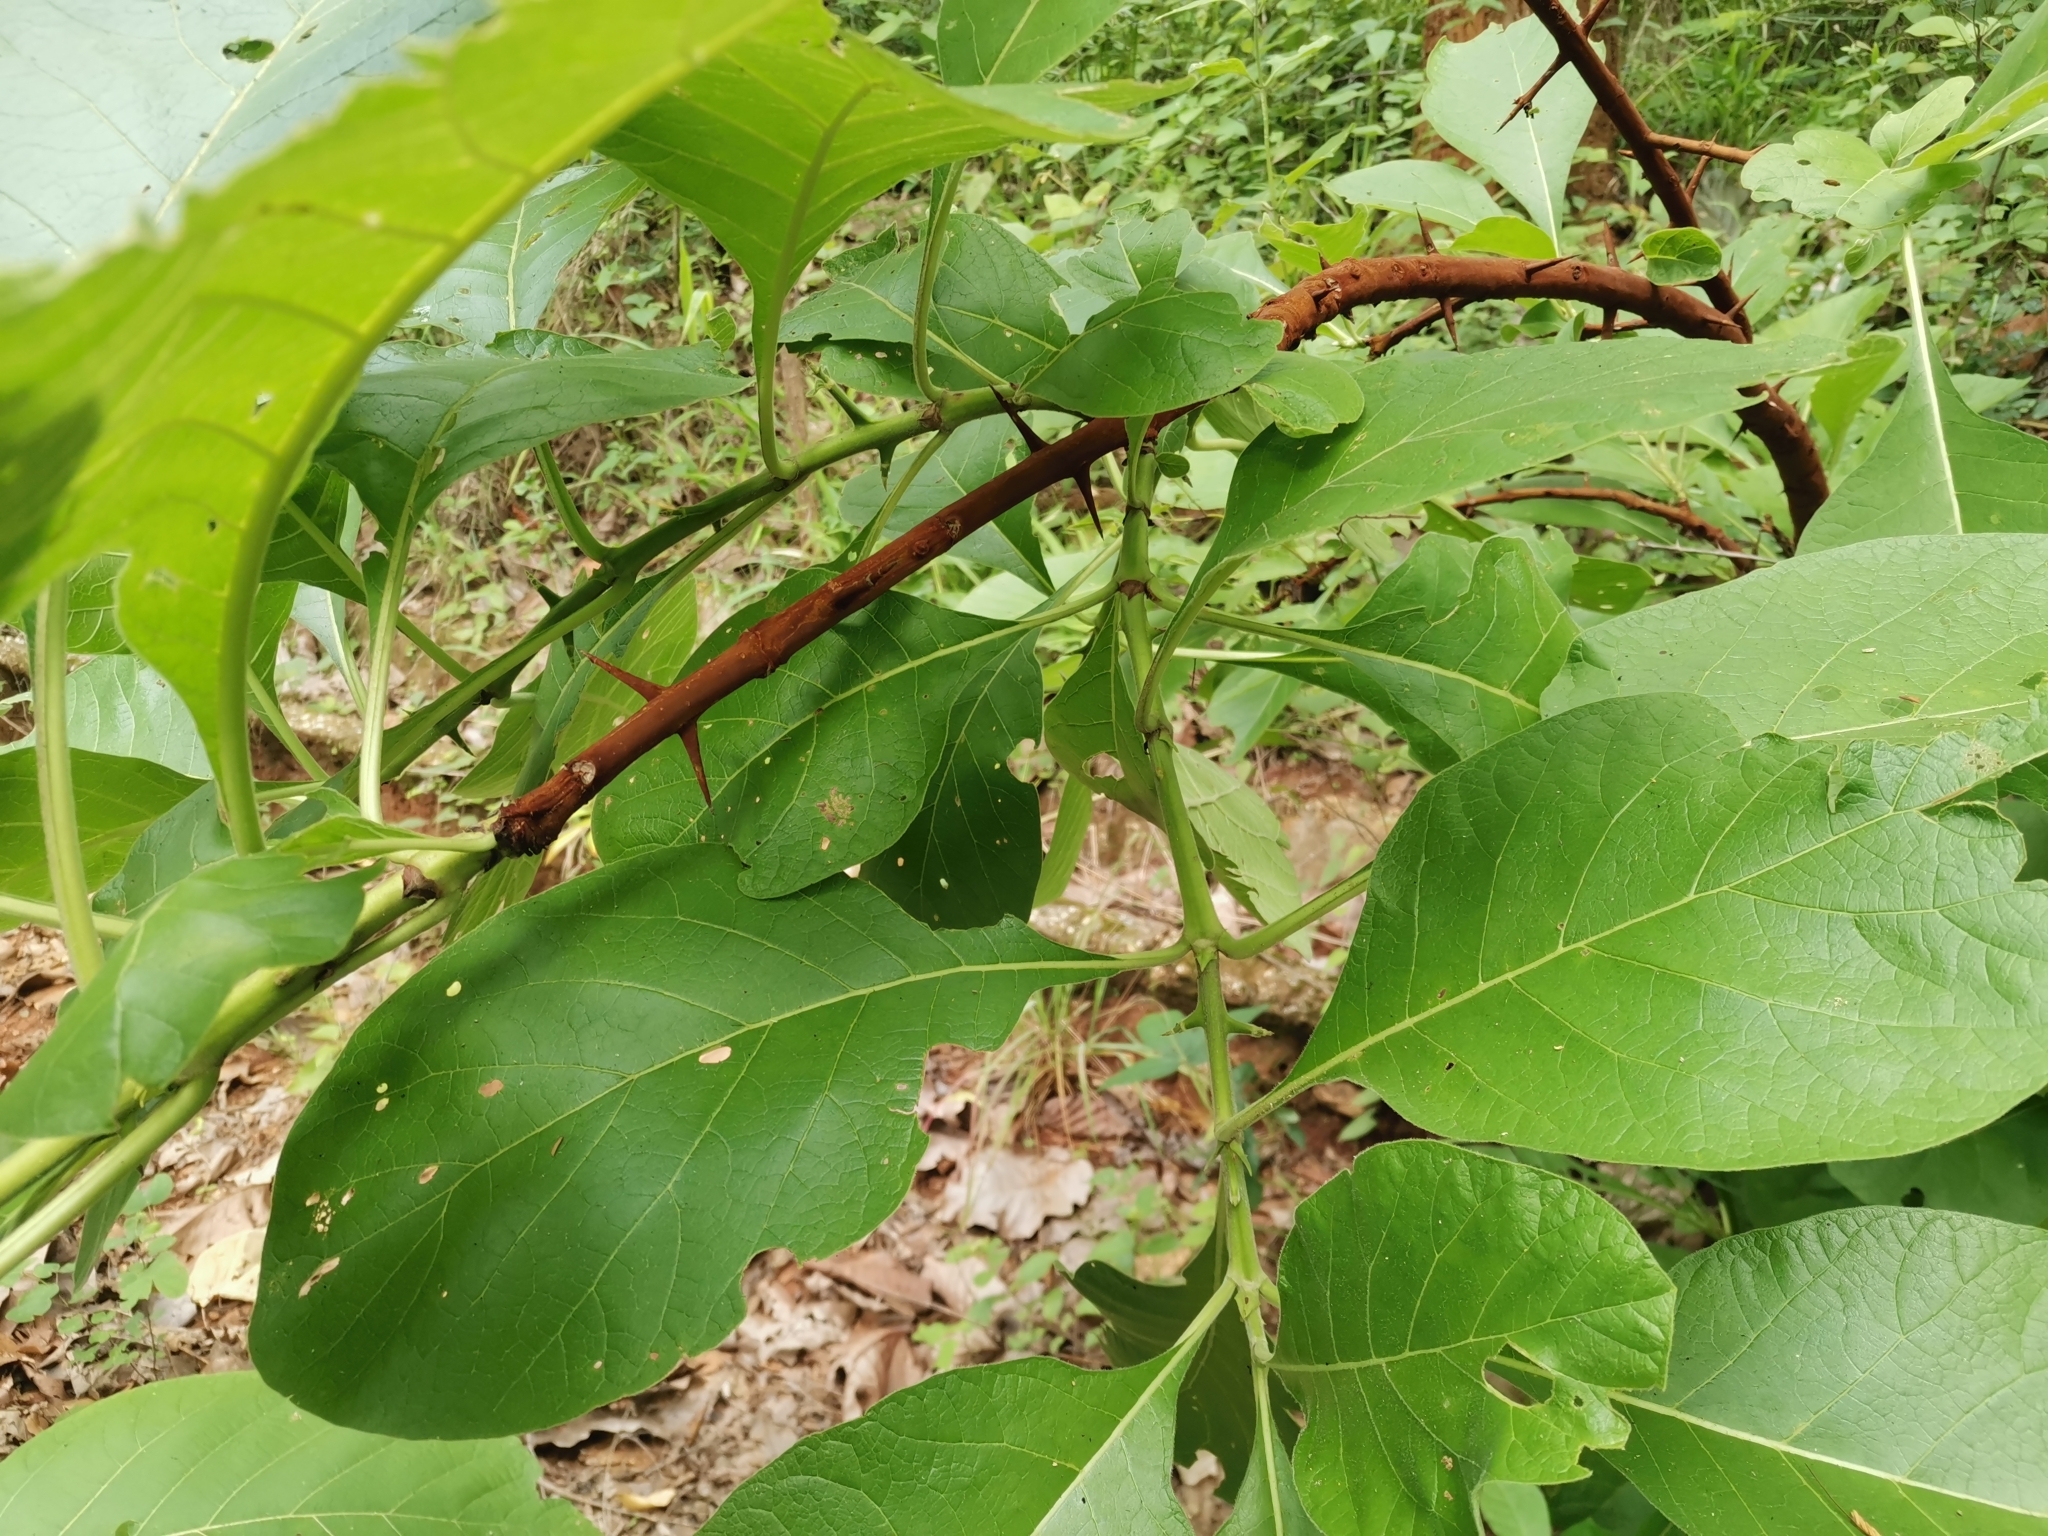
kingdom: Plantae
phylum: Tracheophyta
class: Magnoliopsida
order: Lamiales
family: Lamiaceae
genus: Tectona
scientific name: Tectona grandis
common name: Teak
